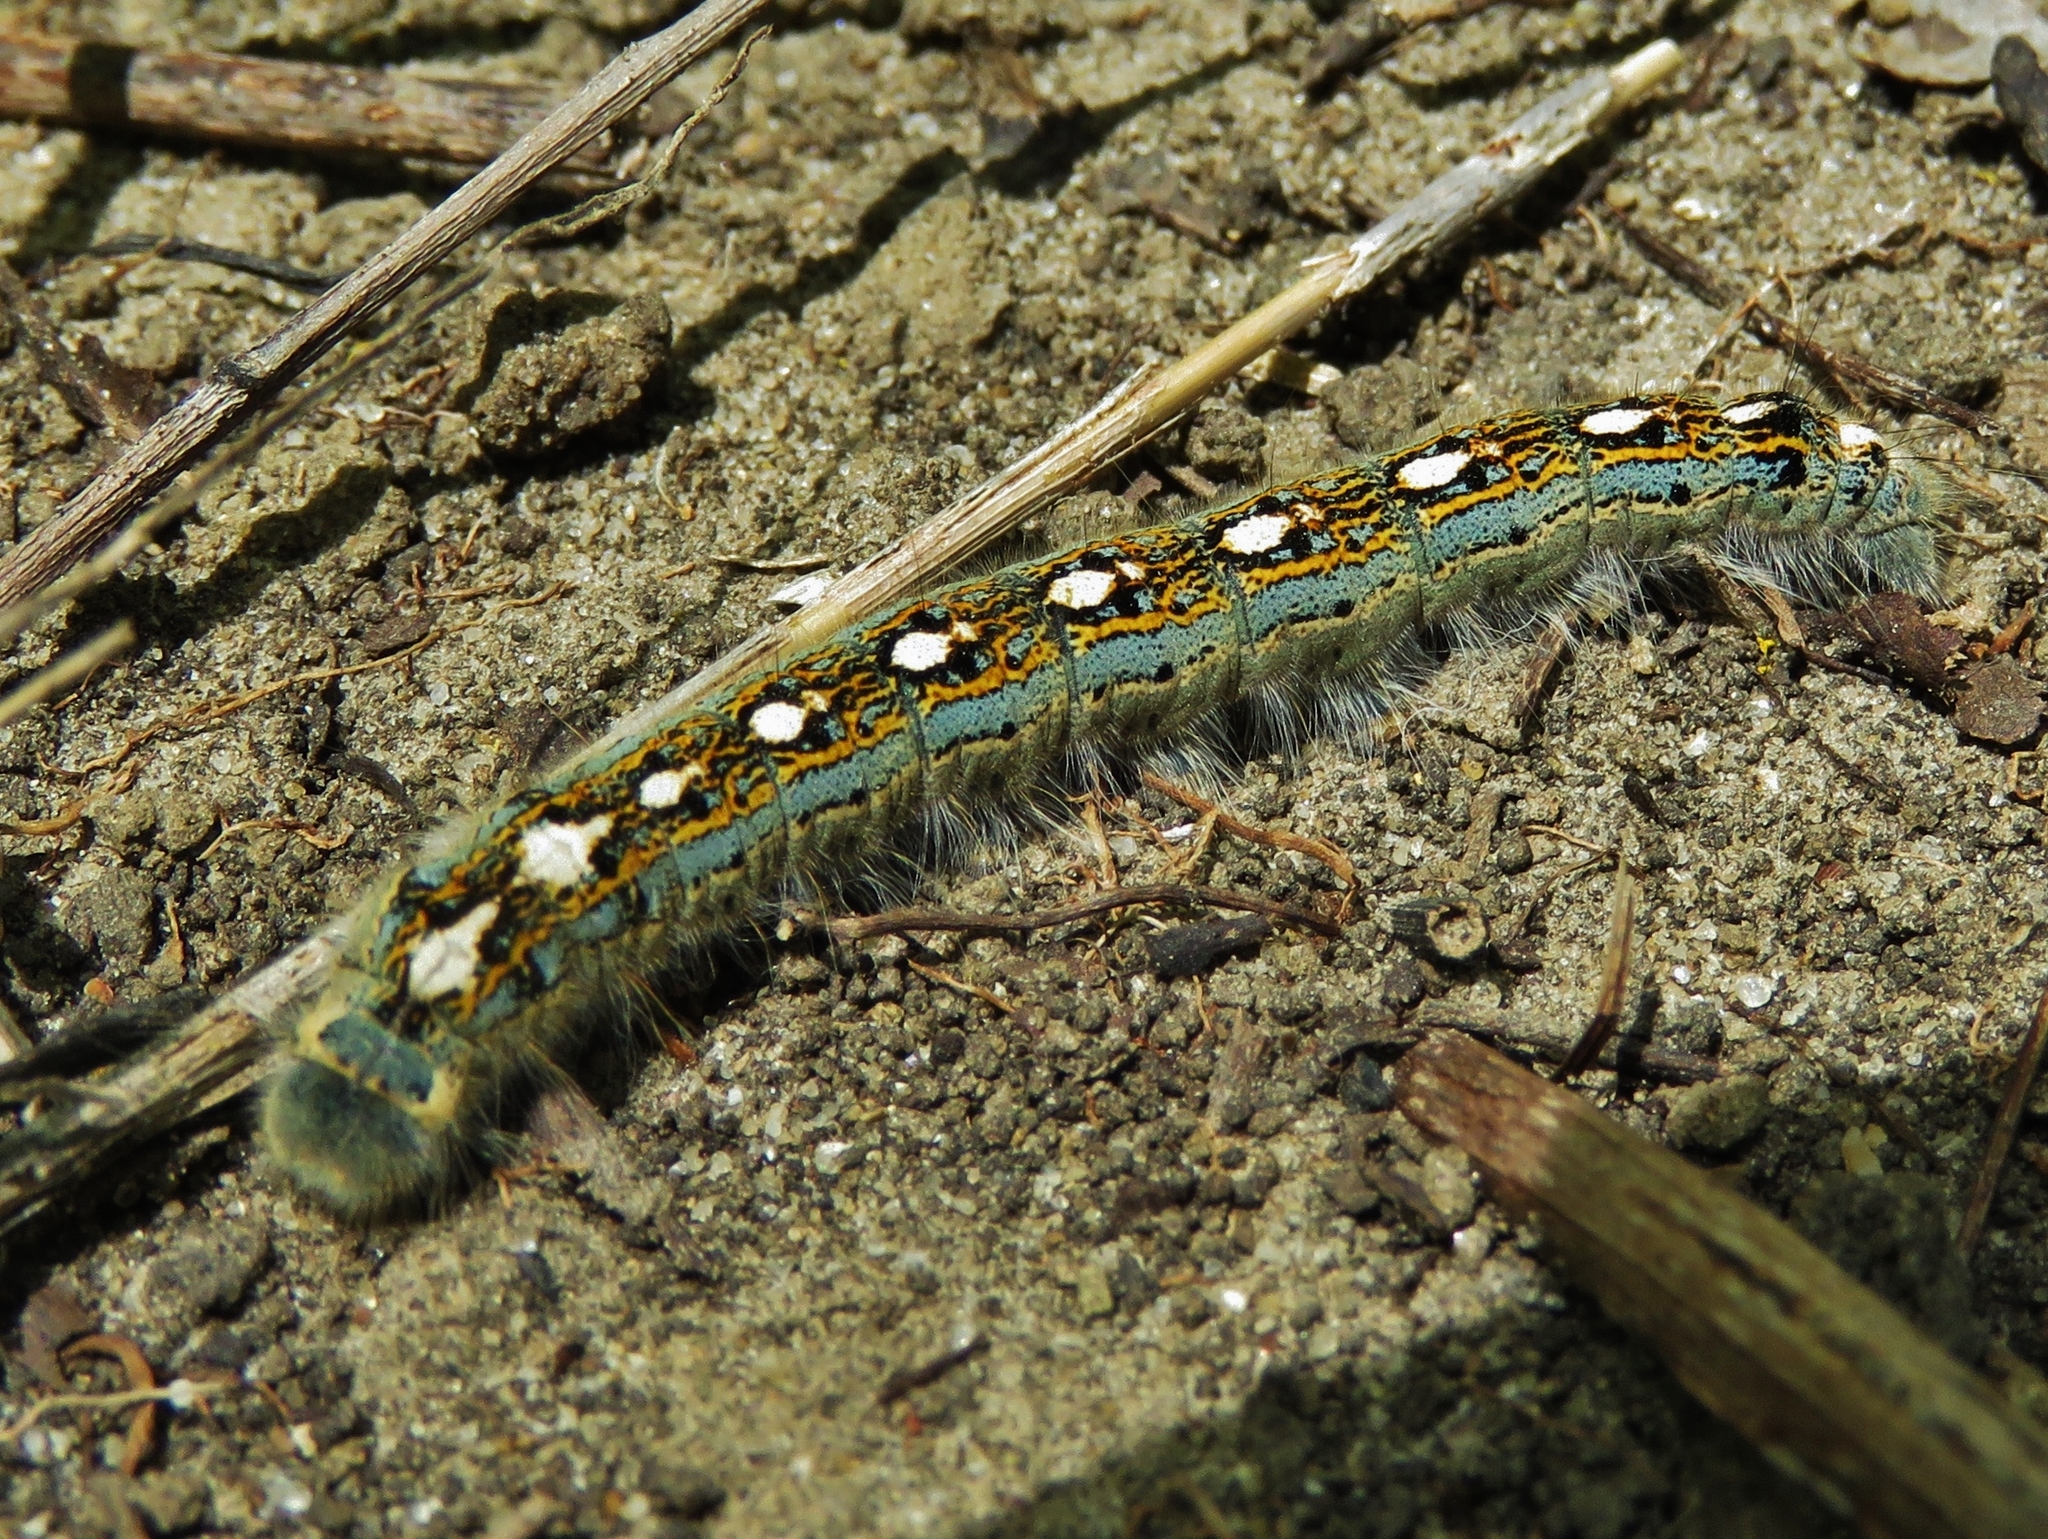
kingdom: Animalia
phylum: Arthropoda
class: Insecta
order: Lepidoptera
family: Lasiocampidae
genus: Malacosoma
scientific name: Malacosoma disstria
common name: Forest tent caterpillar
